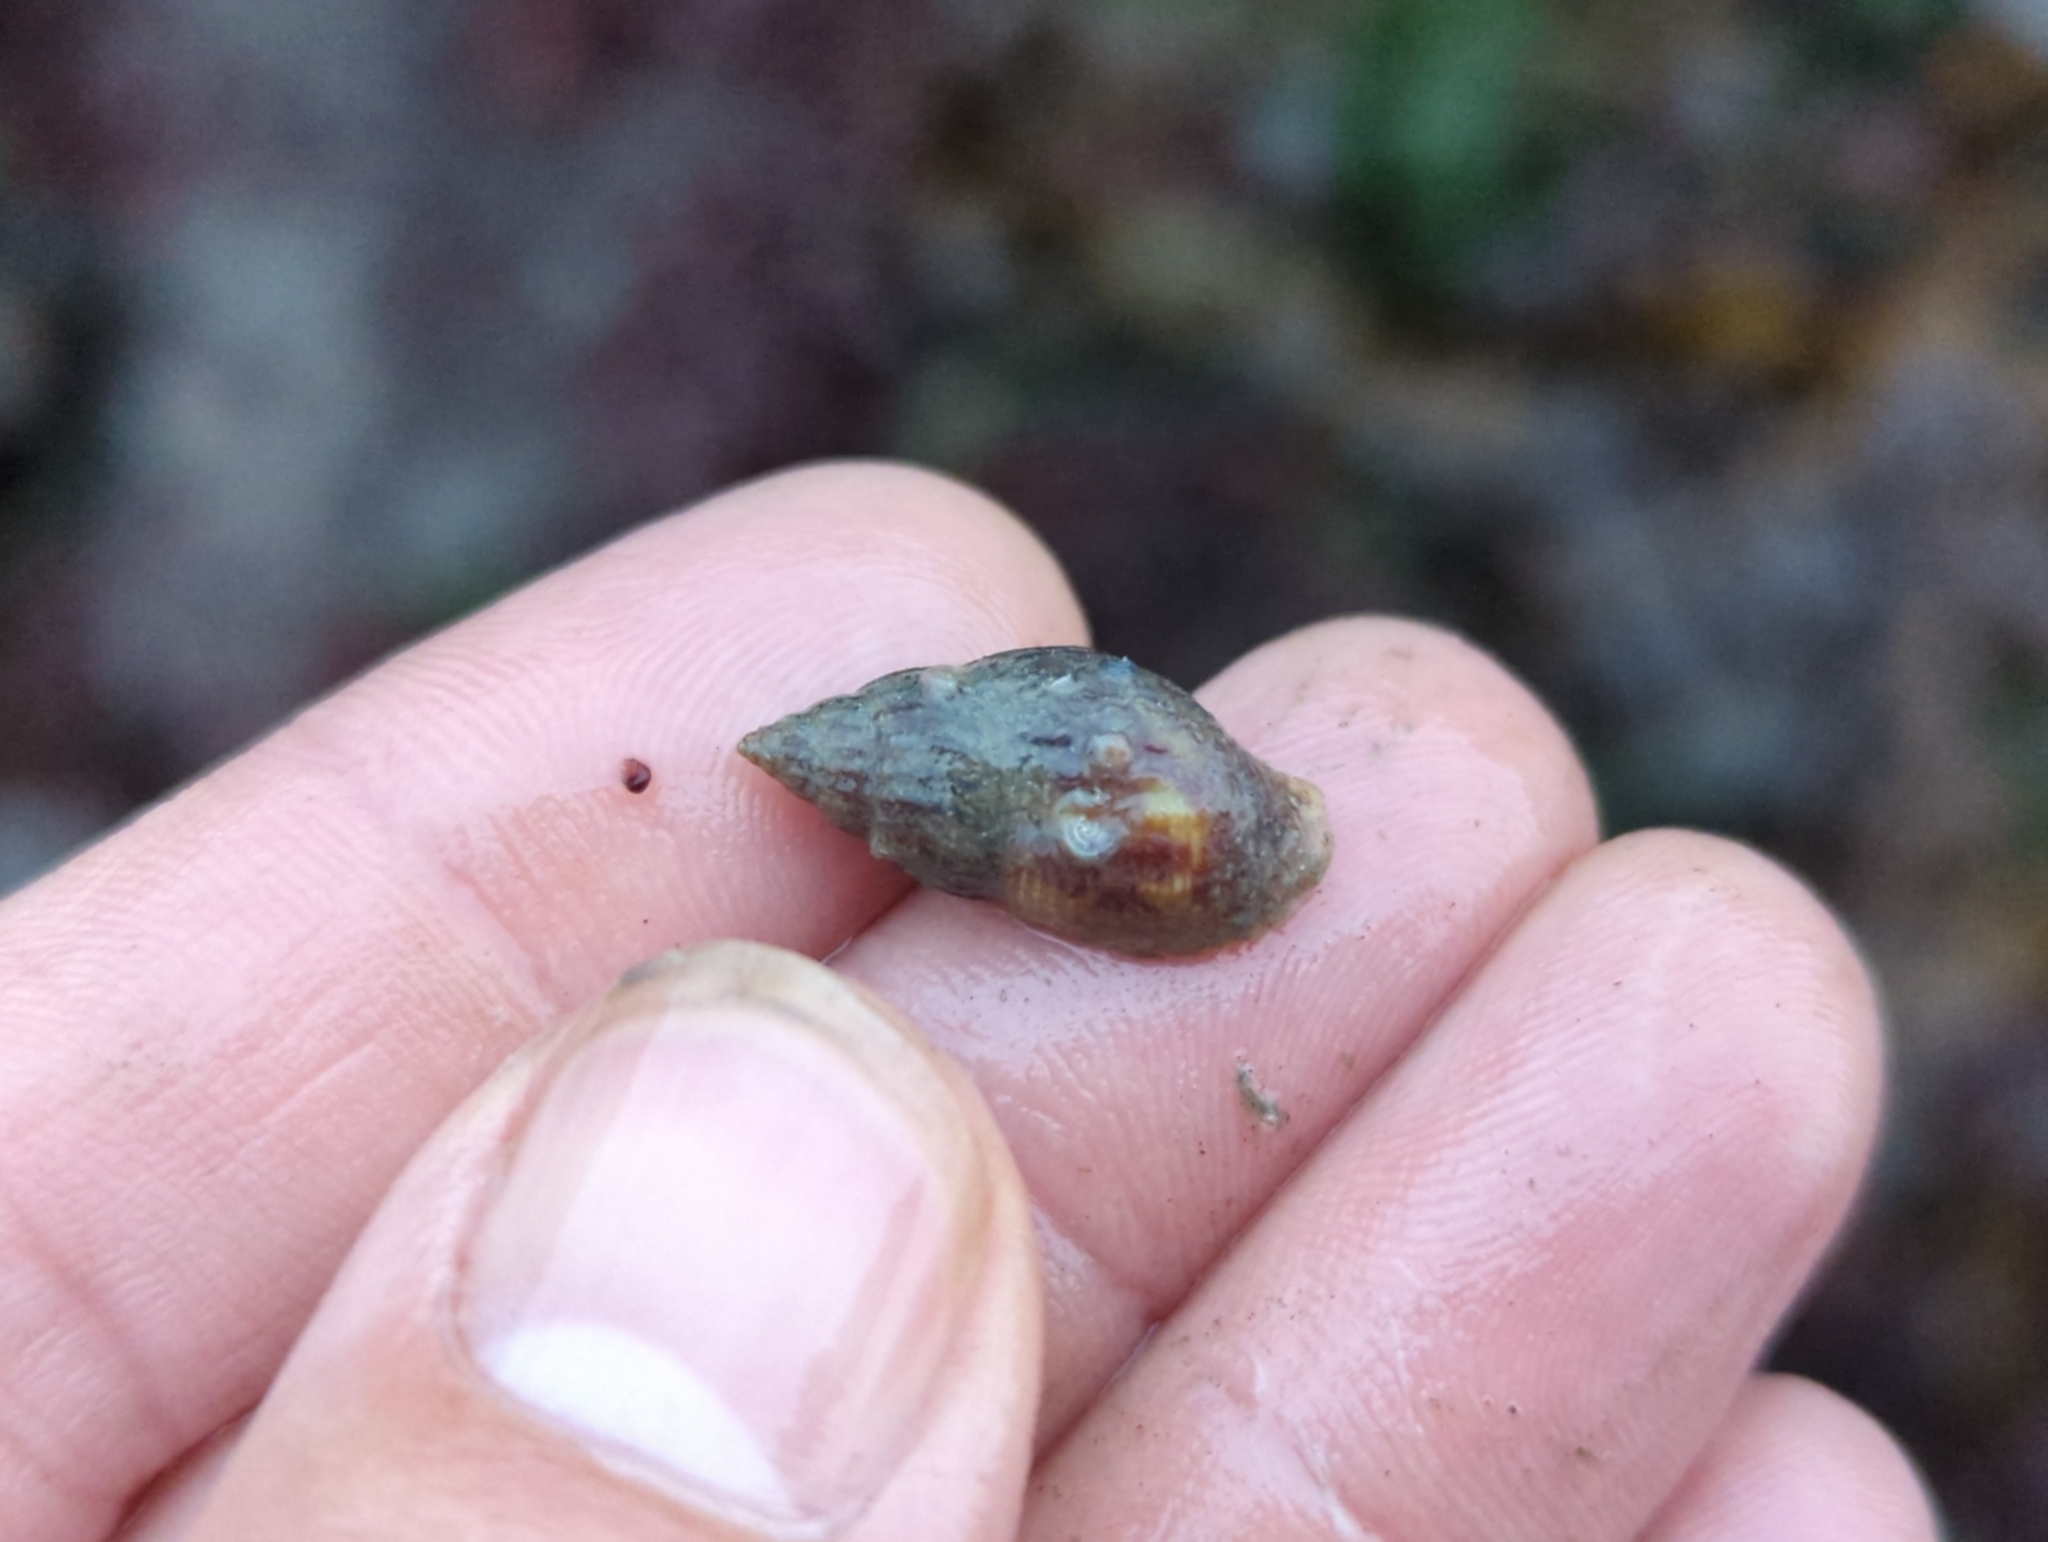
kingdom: Animalia
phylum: Mollusca
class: Gastropoda
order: Neogastropoda
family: Columbellidae
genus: Amphissa
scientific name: Amphissa columbiana
